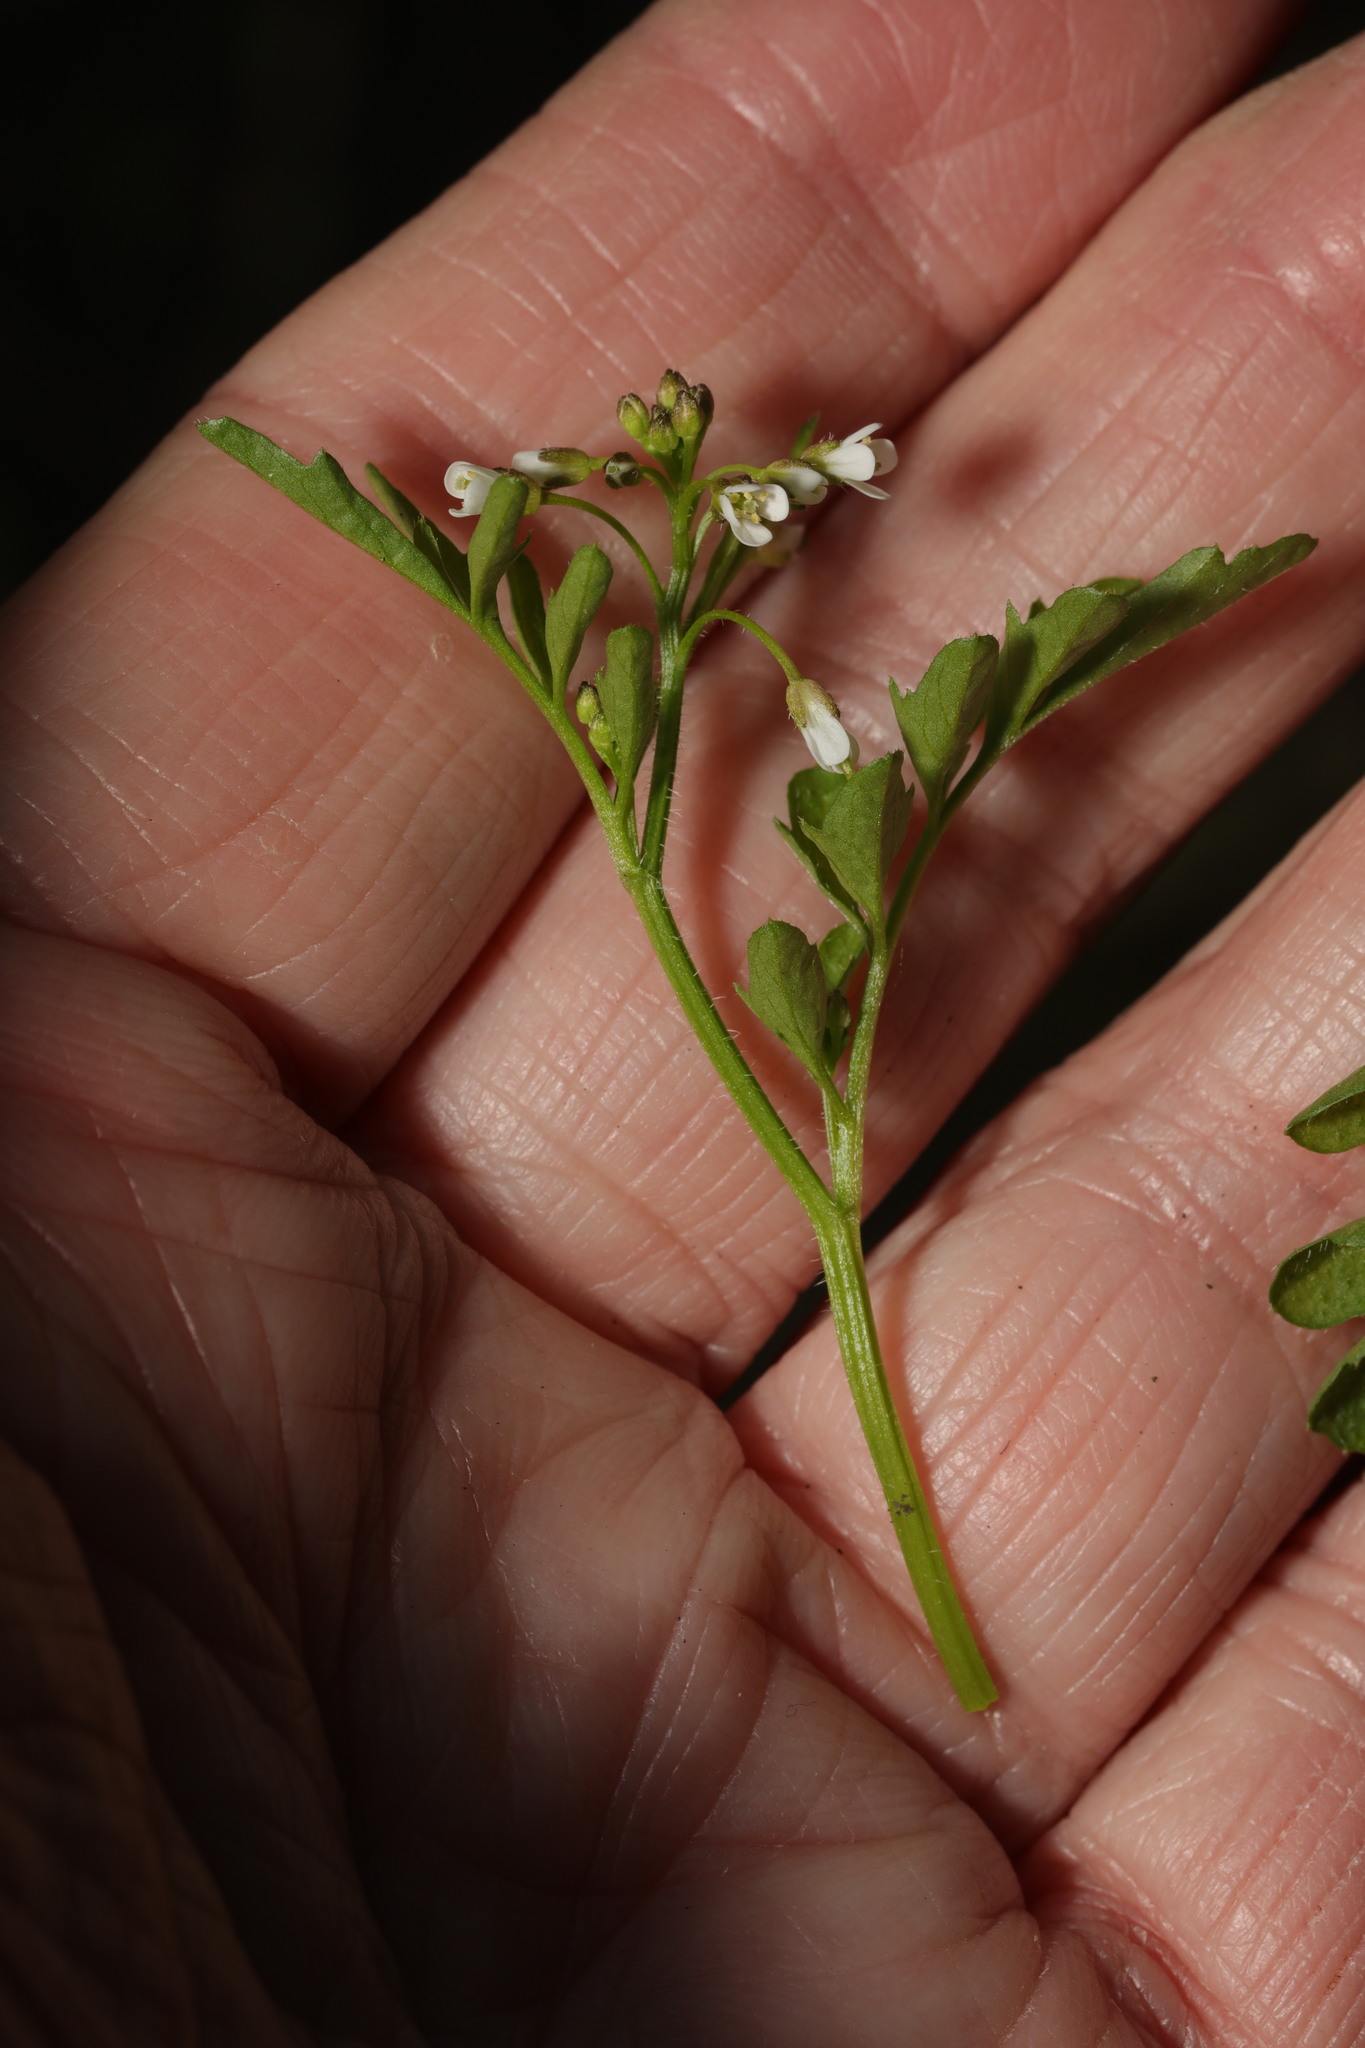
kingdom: Plantae
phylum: Tracheophyta
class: Magnoliopsida
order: Brassicales
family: Brassicaceae
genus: Cardamine
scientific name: Cardamine flexuosa
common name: Woodland bittercress
